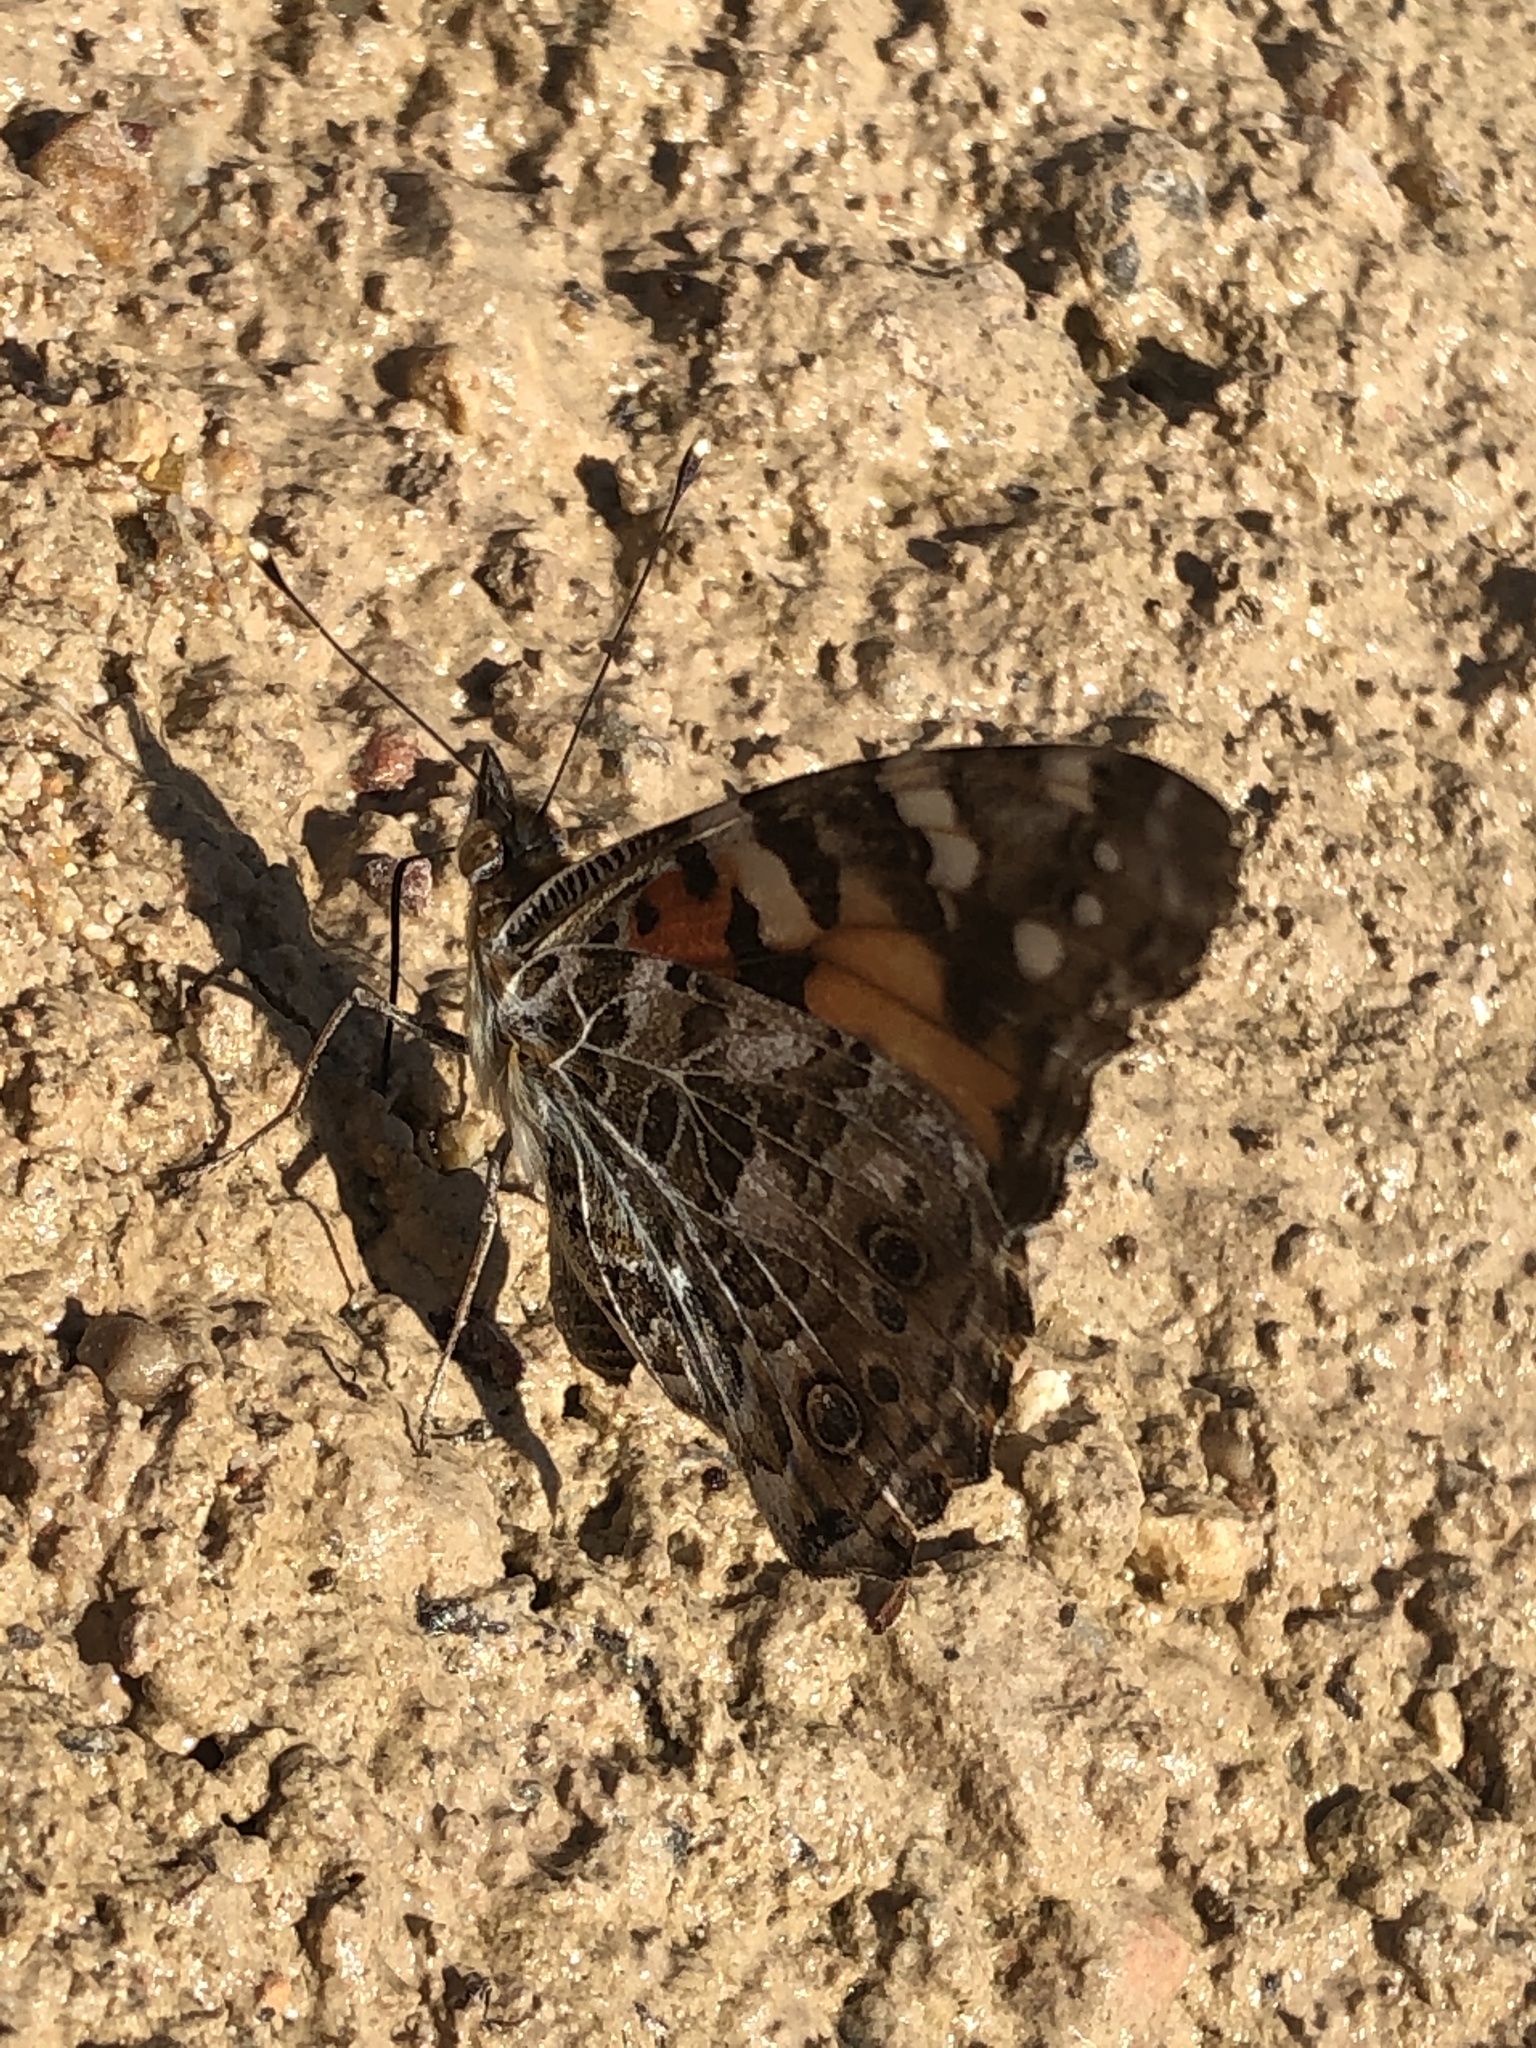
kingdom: Animalia
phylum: Arthropoda
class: Insecta
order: Lepidoptera
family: Nymphalidae
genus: Vanessa
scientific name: Vanessa cardui
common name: Painted lady
